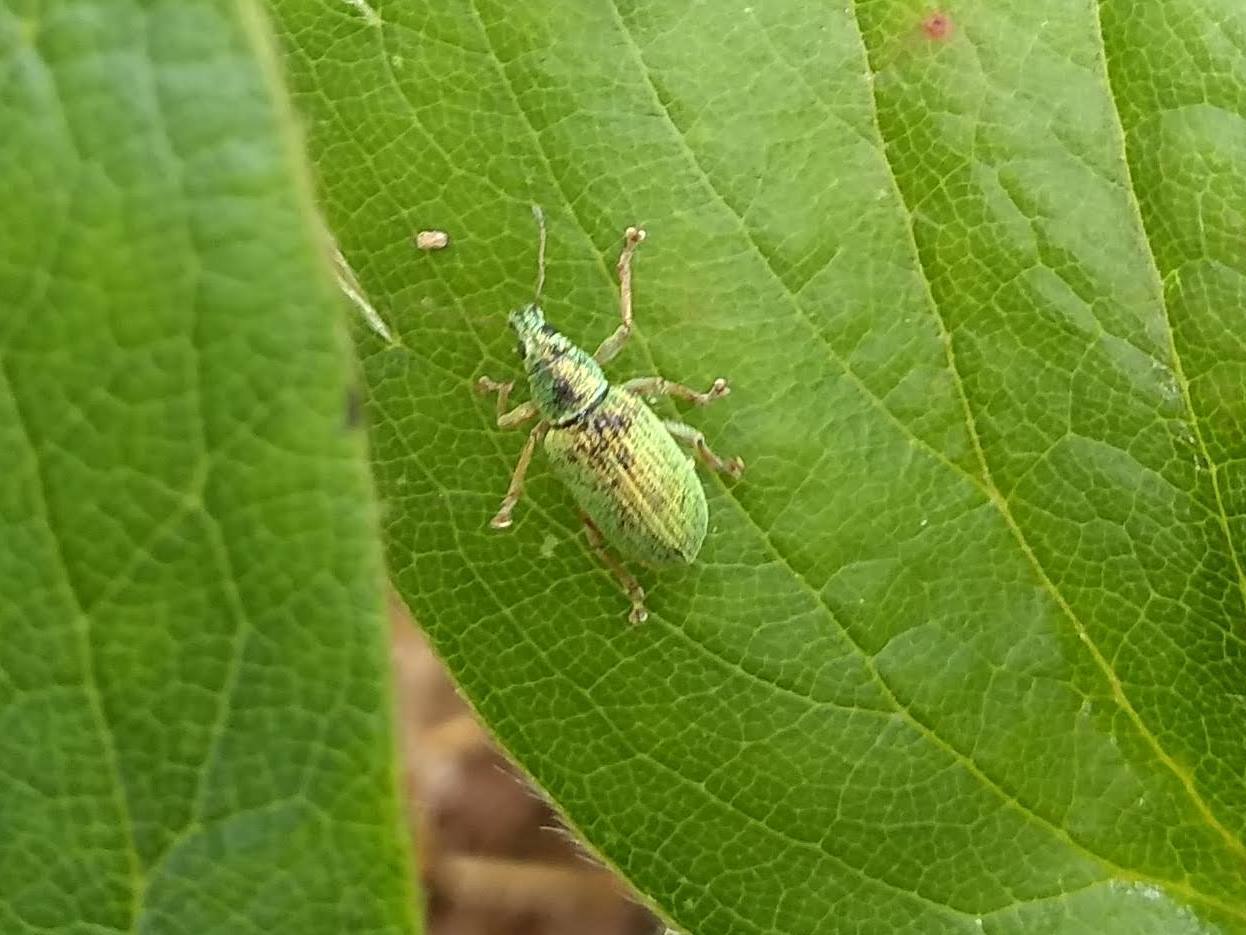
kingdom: Animalia
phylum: Arthropoda
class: Insecta
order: Coleoptera
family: Curculionidae
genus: Polydrusus
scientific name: Polydrusus formosus
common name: Weevil
